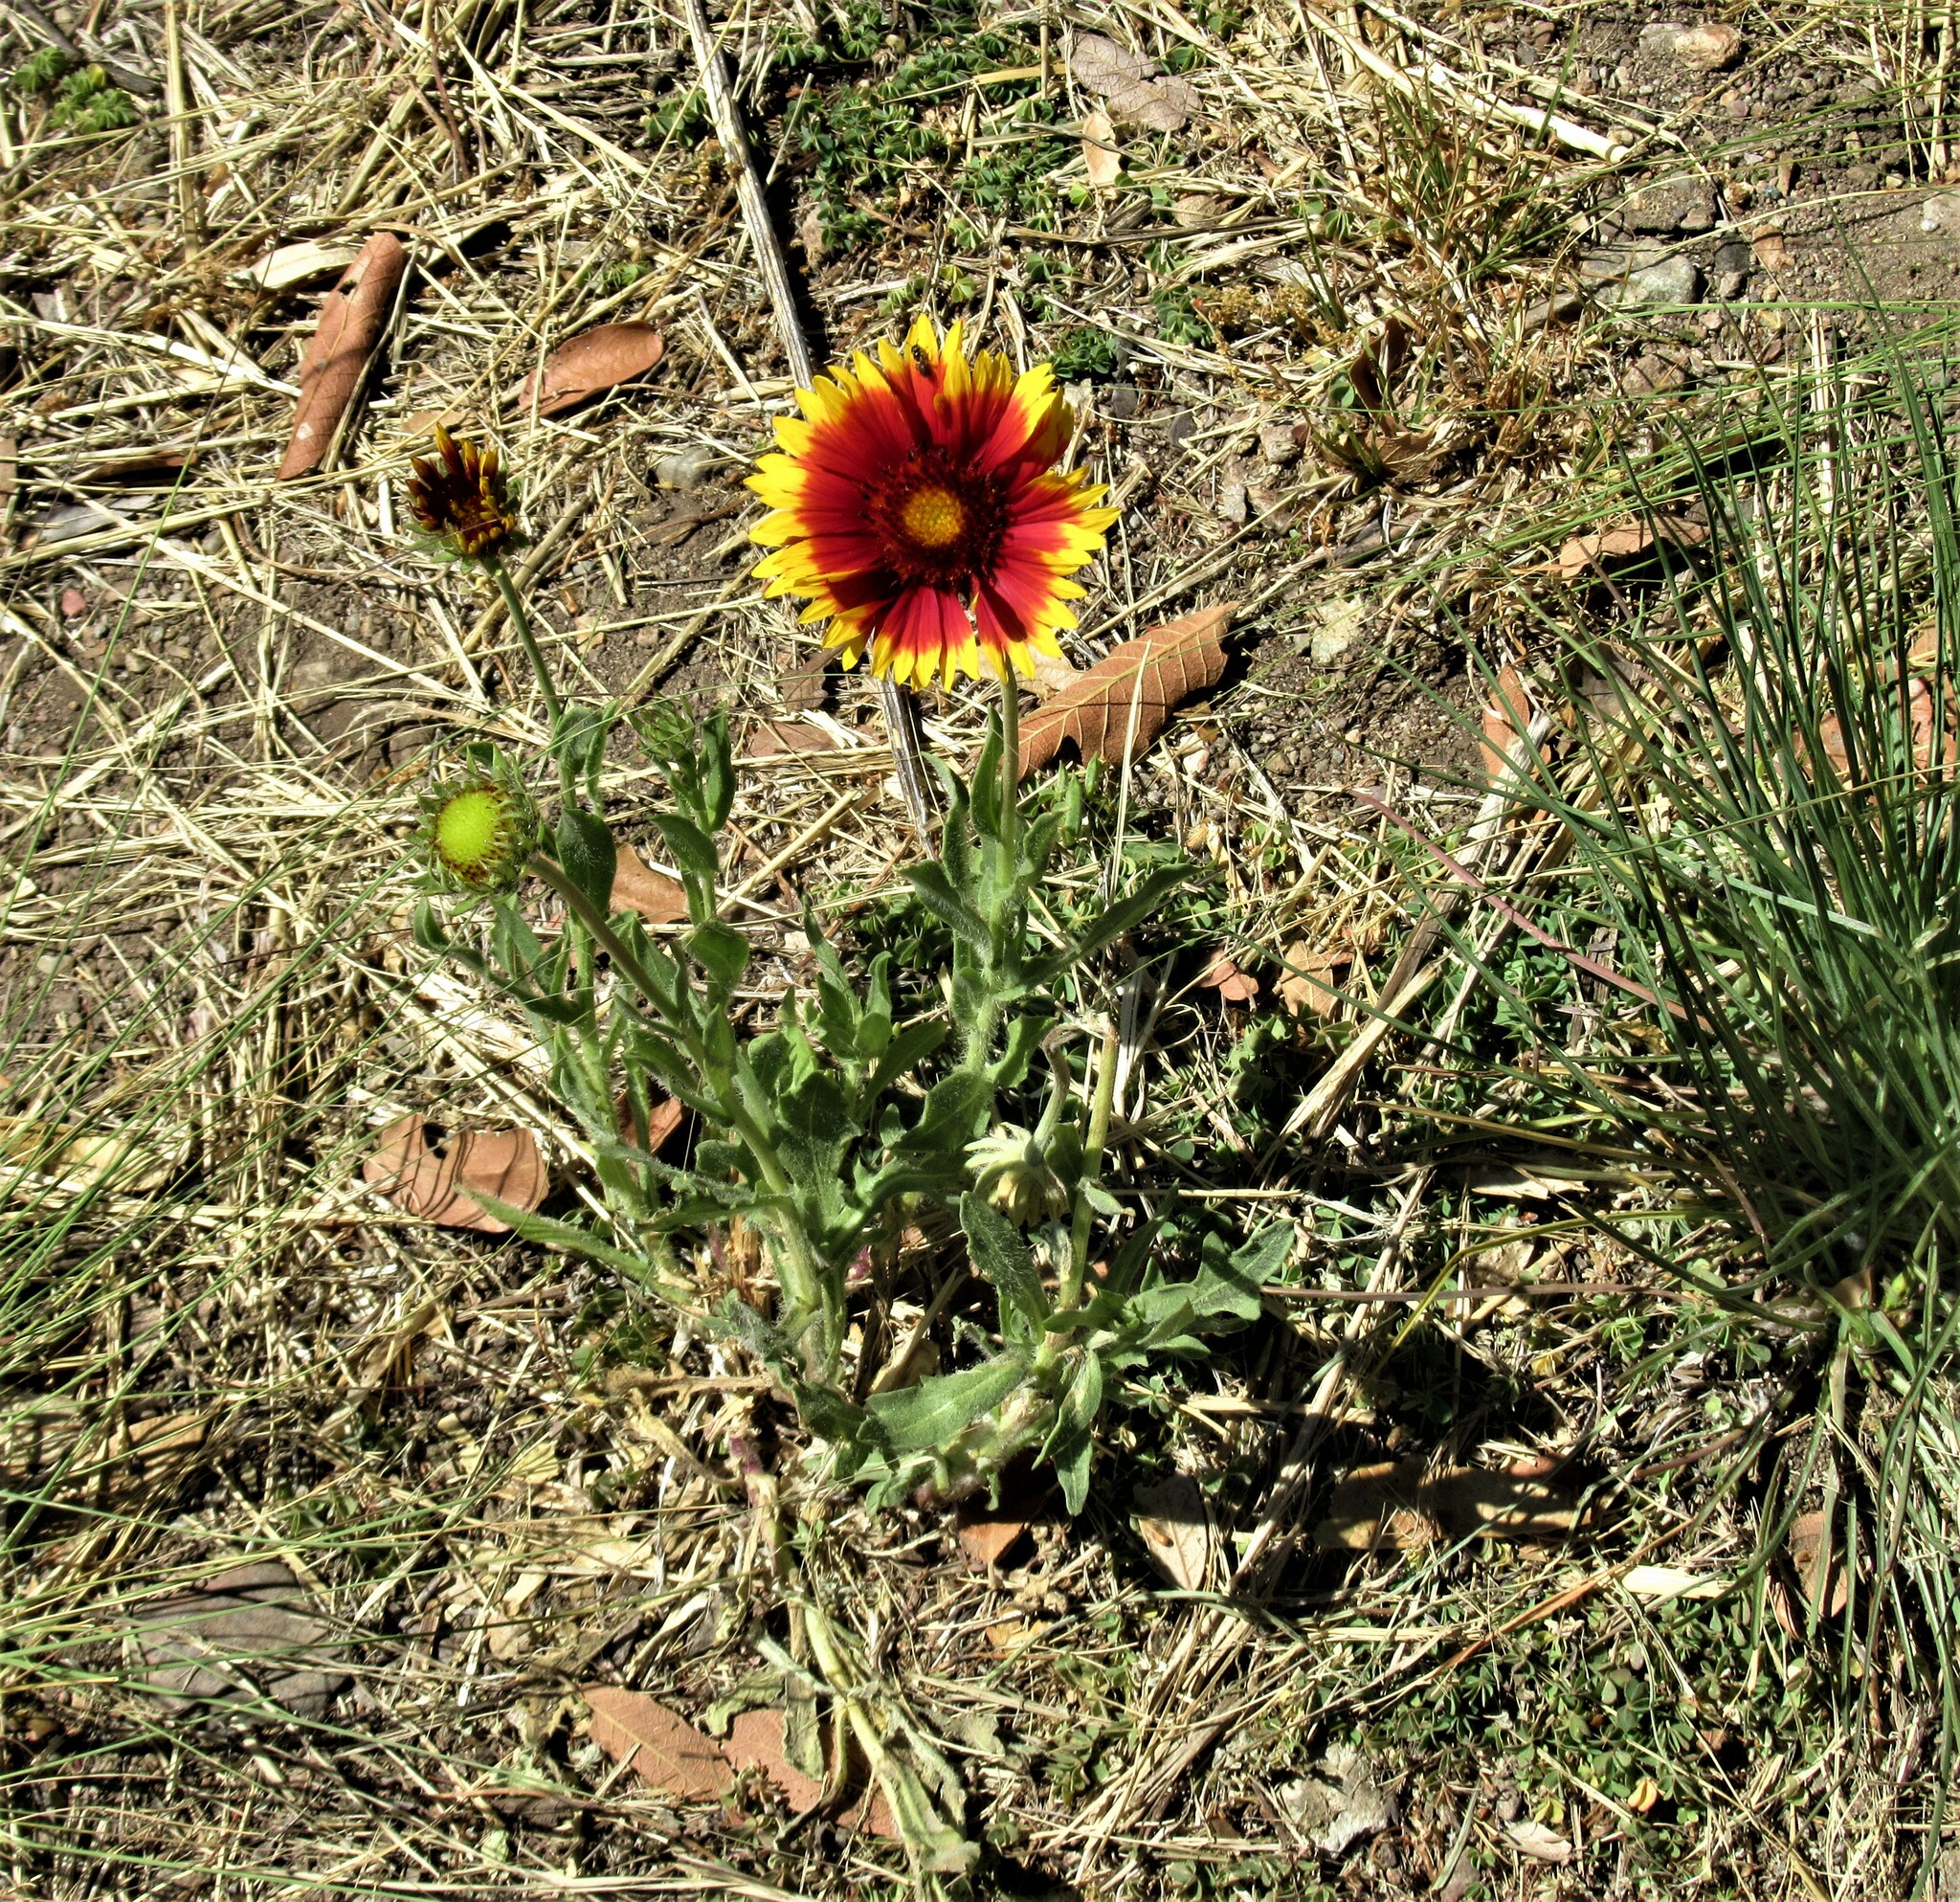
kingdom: Plantae
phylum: Tracheophyta
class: Magnoliopsida
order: Asterales
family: Asteraceae
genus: Gaillardia
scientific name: Gaillardia pulchella
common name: Firewheel
